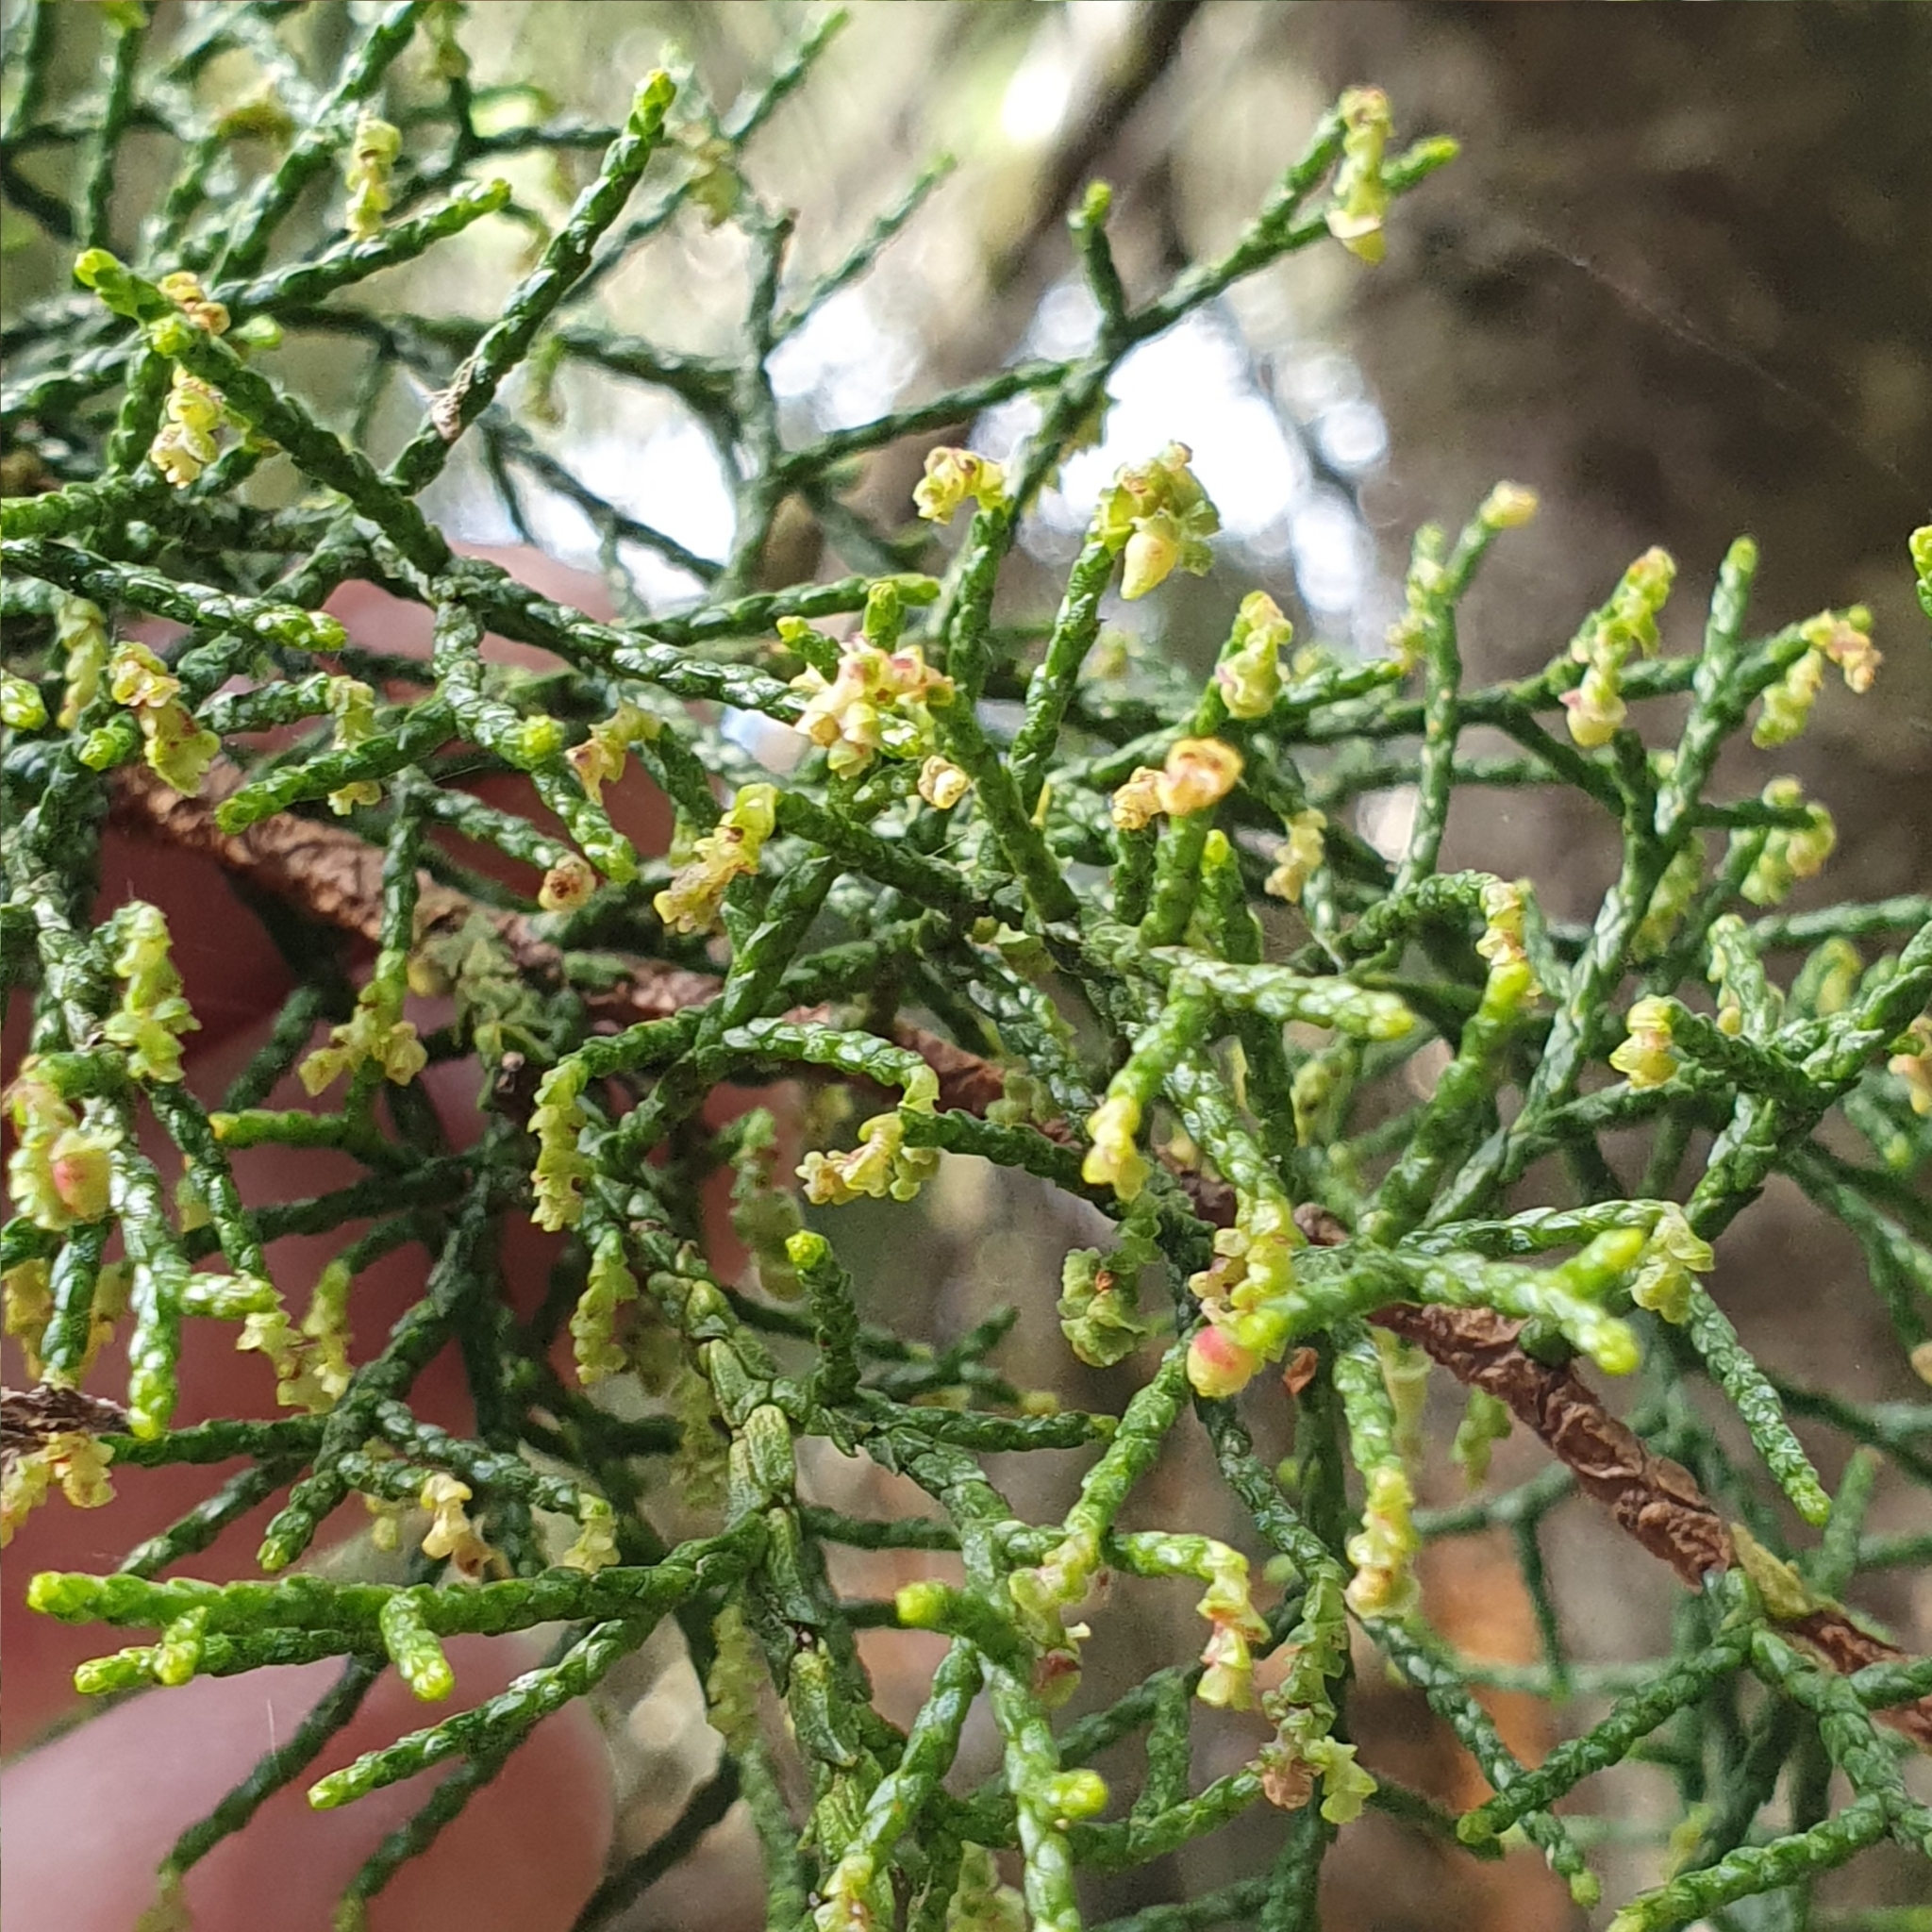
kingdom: Plantae
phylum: Tracheophyta
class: Pinopsida
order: Pinales
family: Podocarpaceae
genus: Lagarostrobos
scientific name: Lagarostrobos franklinii
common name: Huon pine
